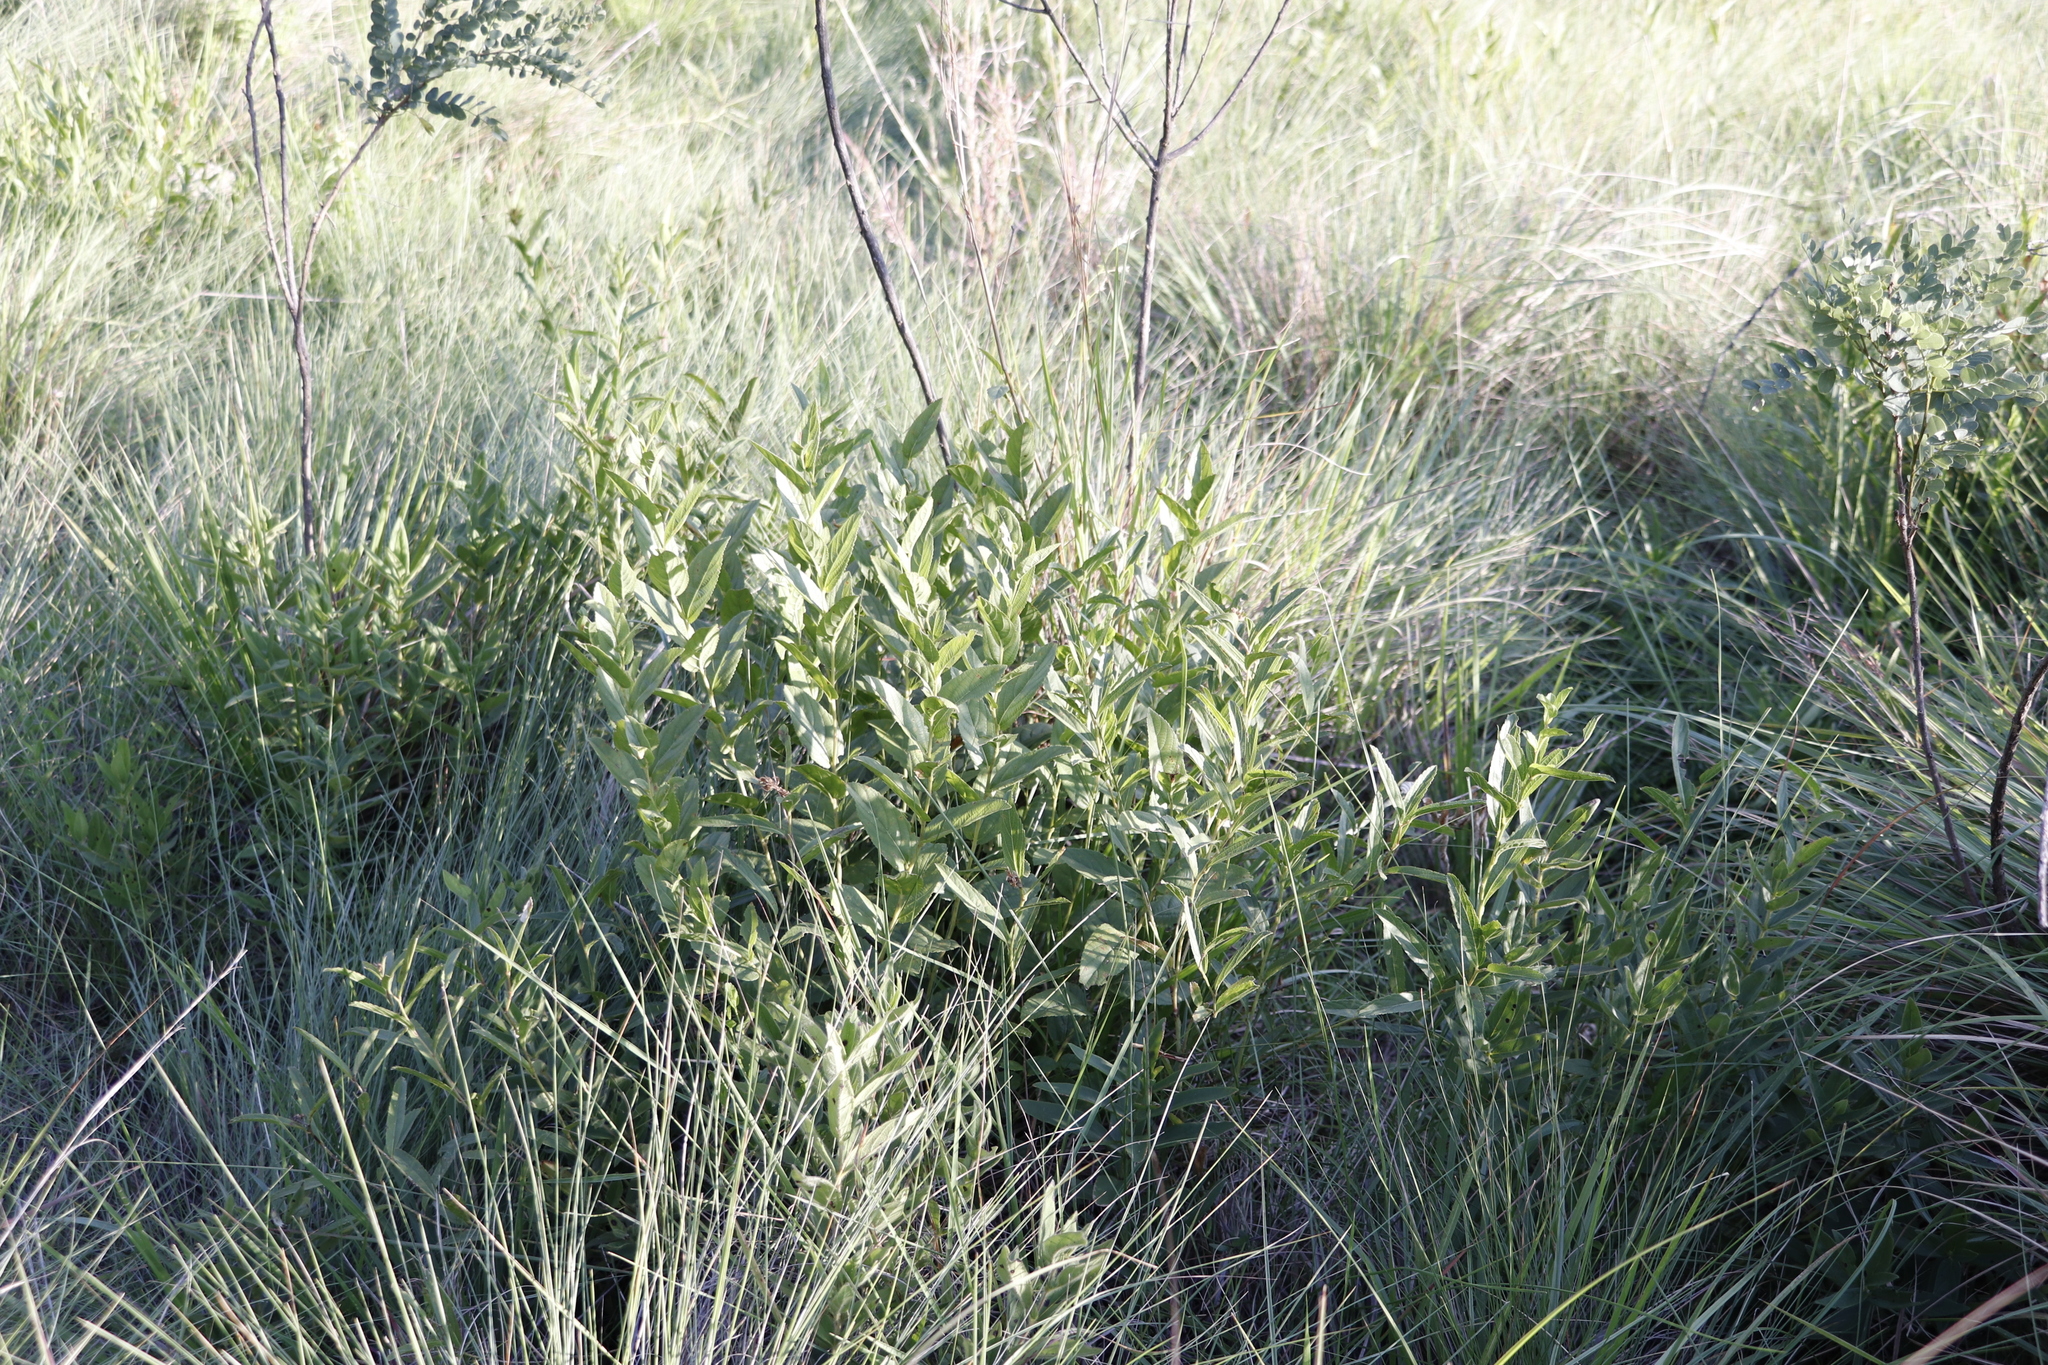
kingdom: Plantae
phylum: Tracheophyta
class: Magnoliopsida
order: Lamiales
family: Lamiaceae
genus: Coleus
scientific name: Coleus calycinus
